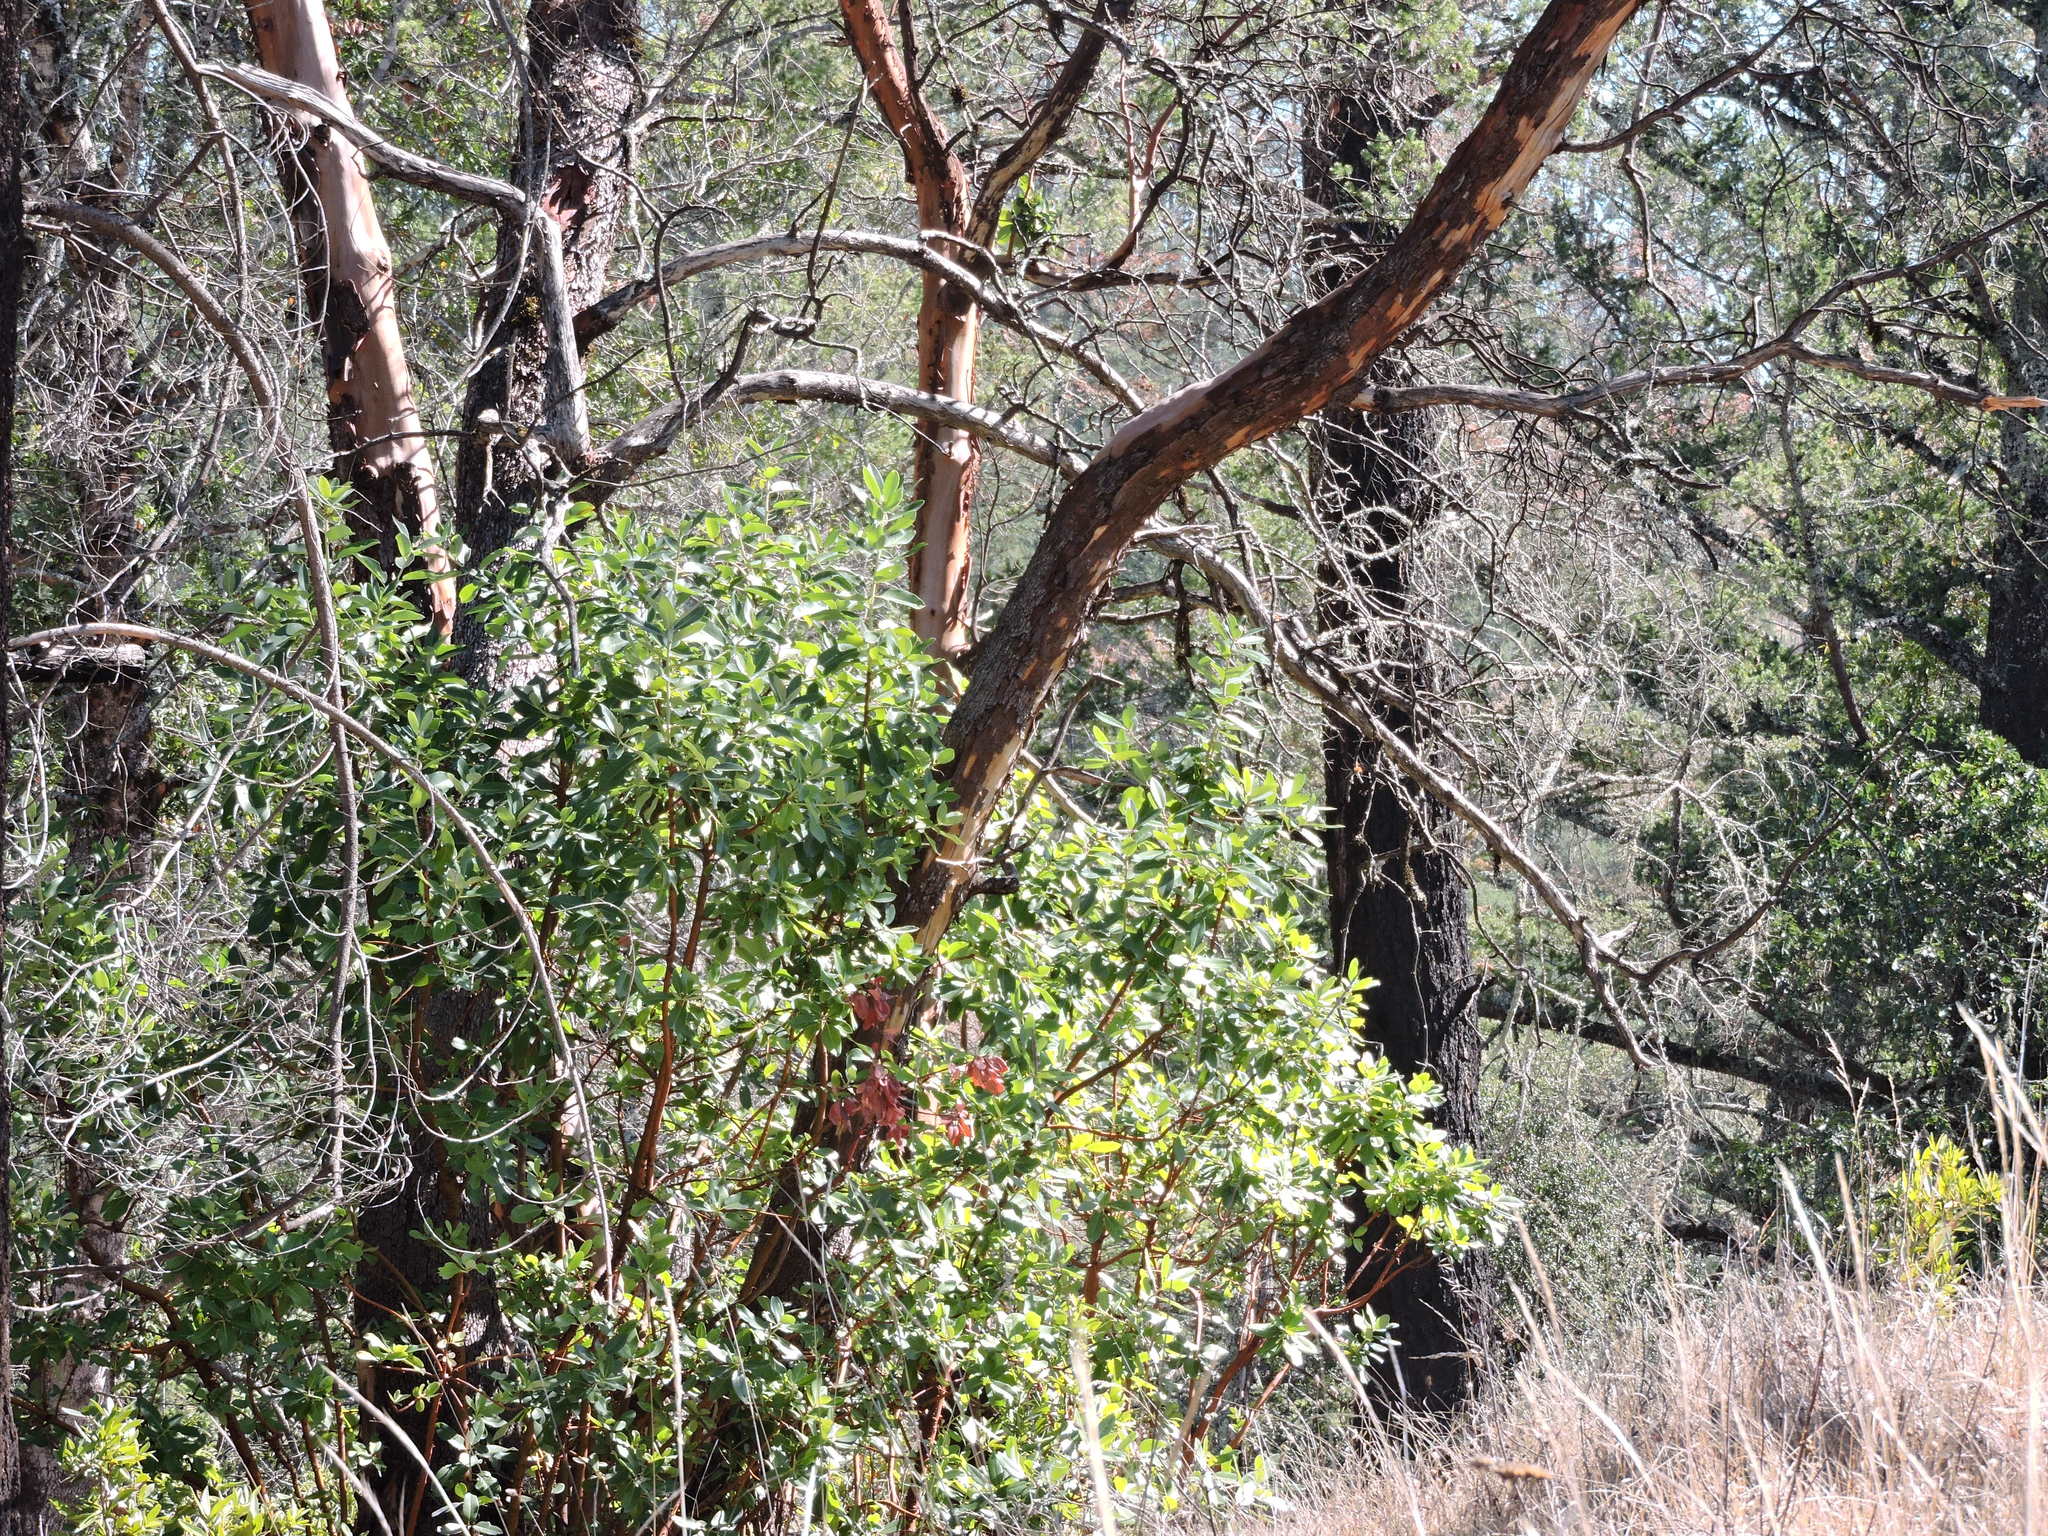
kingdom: Plantae
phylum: Tracheophyta
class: Magnoliopsida
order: Ericales
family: Ericaceae
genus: Arbutus
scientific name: Arbutus menziesii
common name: Pacific madrone
